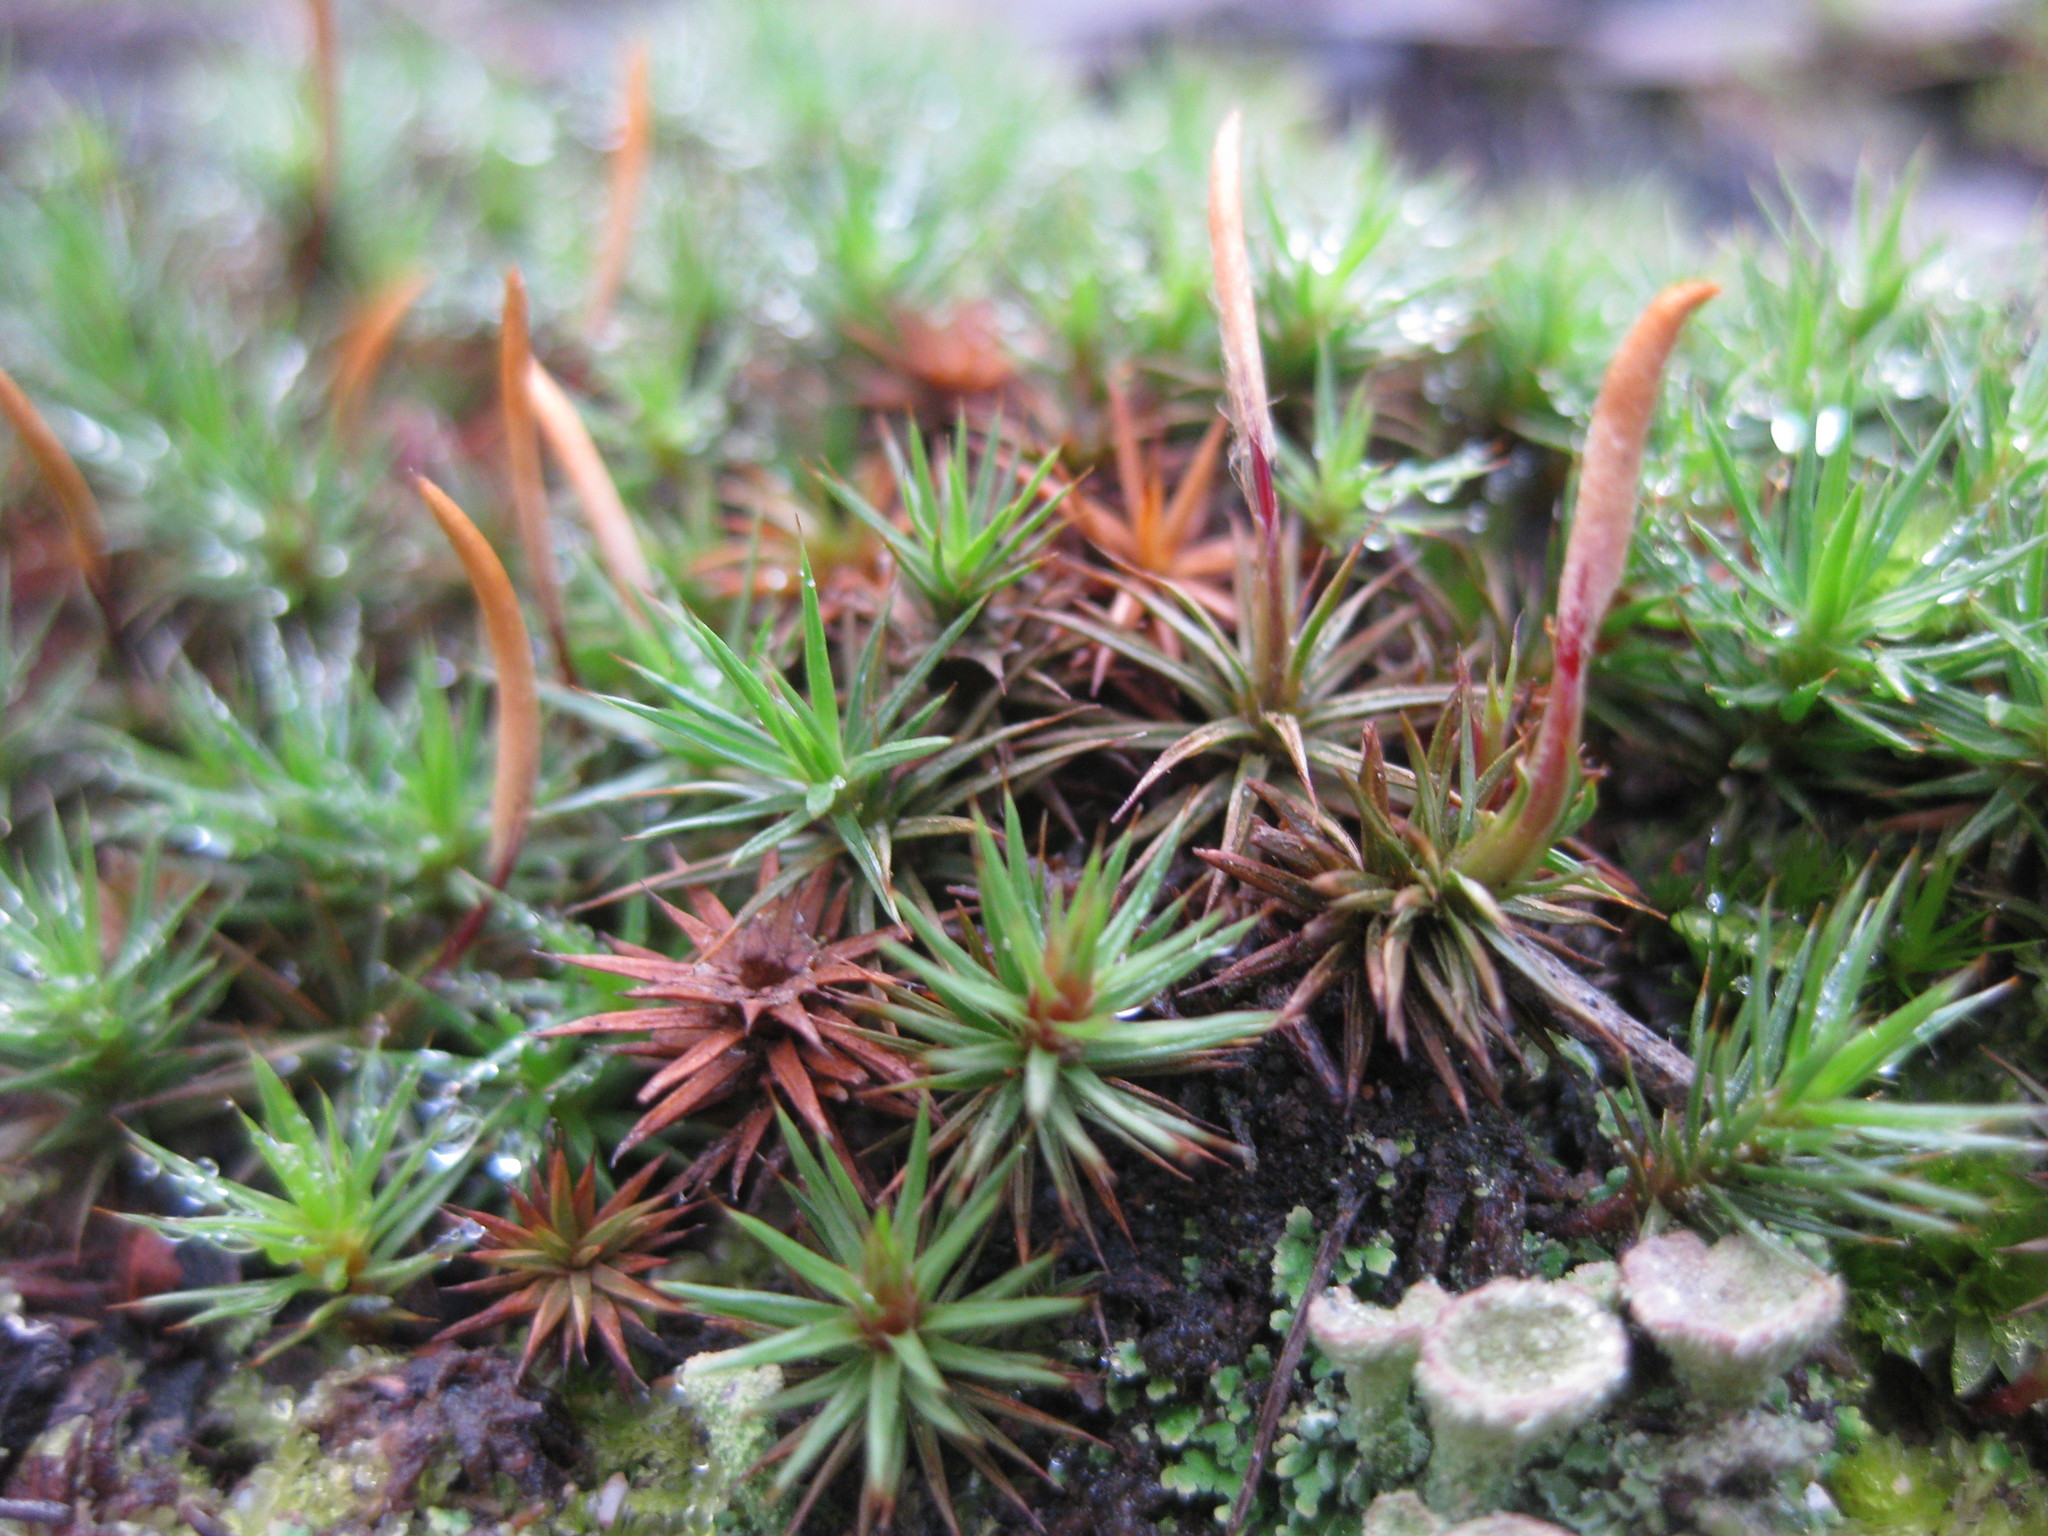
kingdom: Plantae
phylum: Bryophyta
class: Polytrichopsida
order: Polytrichales
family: Polytrichaceae
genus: Polytrichum
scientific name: Polytrichum juniperinum
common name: Juniper haircap moss
